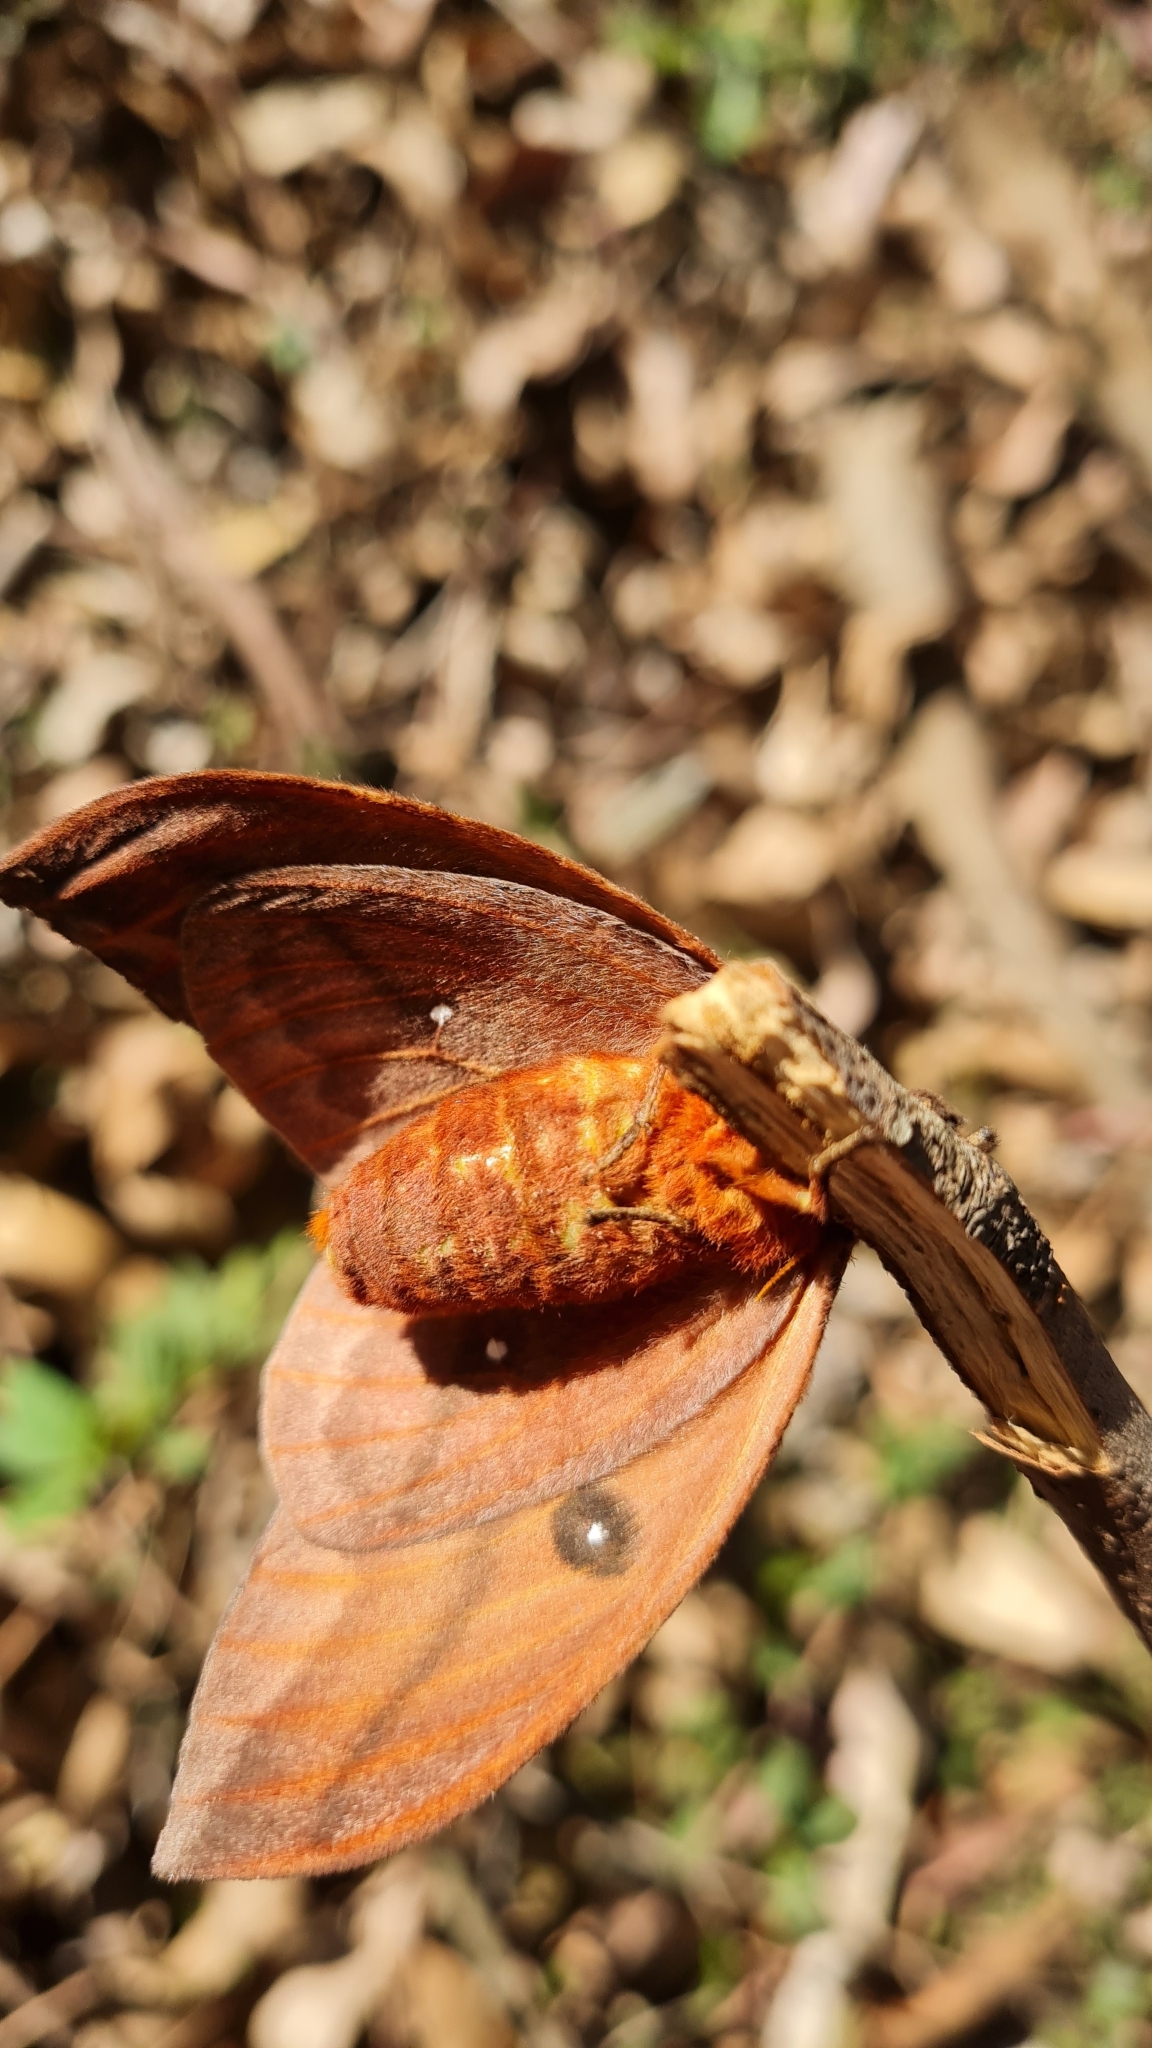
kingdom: Animalia
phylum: Arthropoda
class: Insecta
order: Lepidoptera
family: Saturniidae
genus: Automeris
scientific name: Automeris illustris
